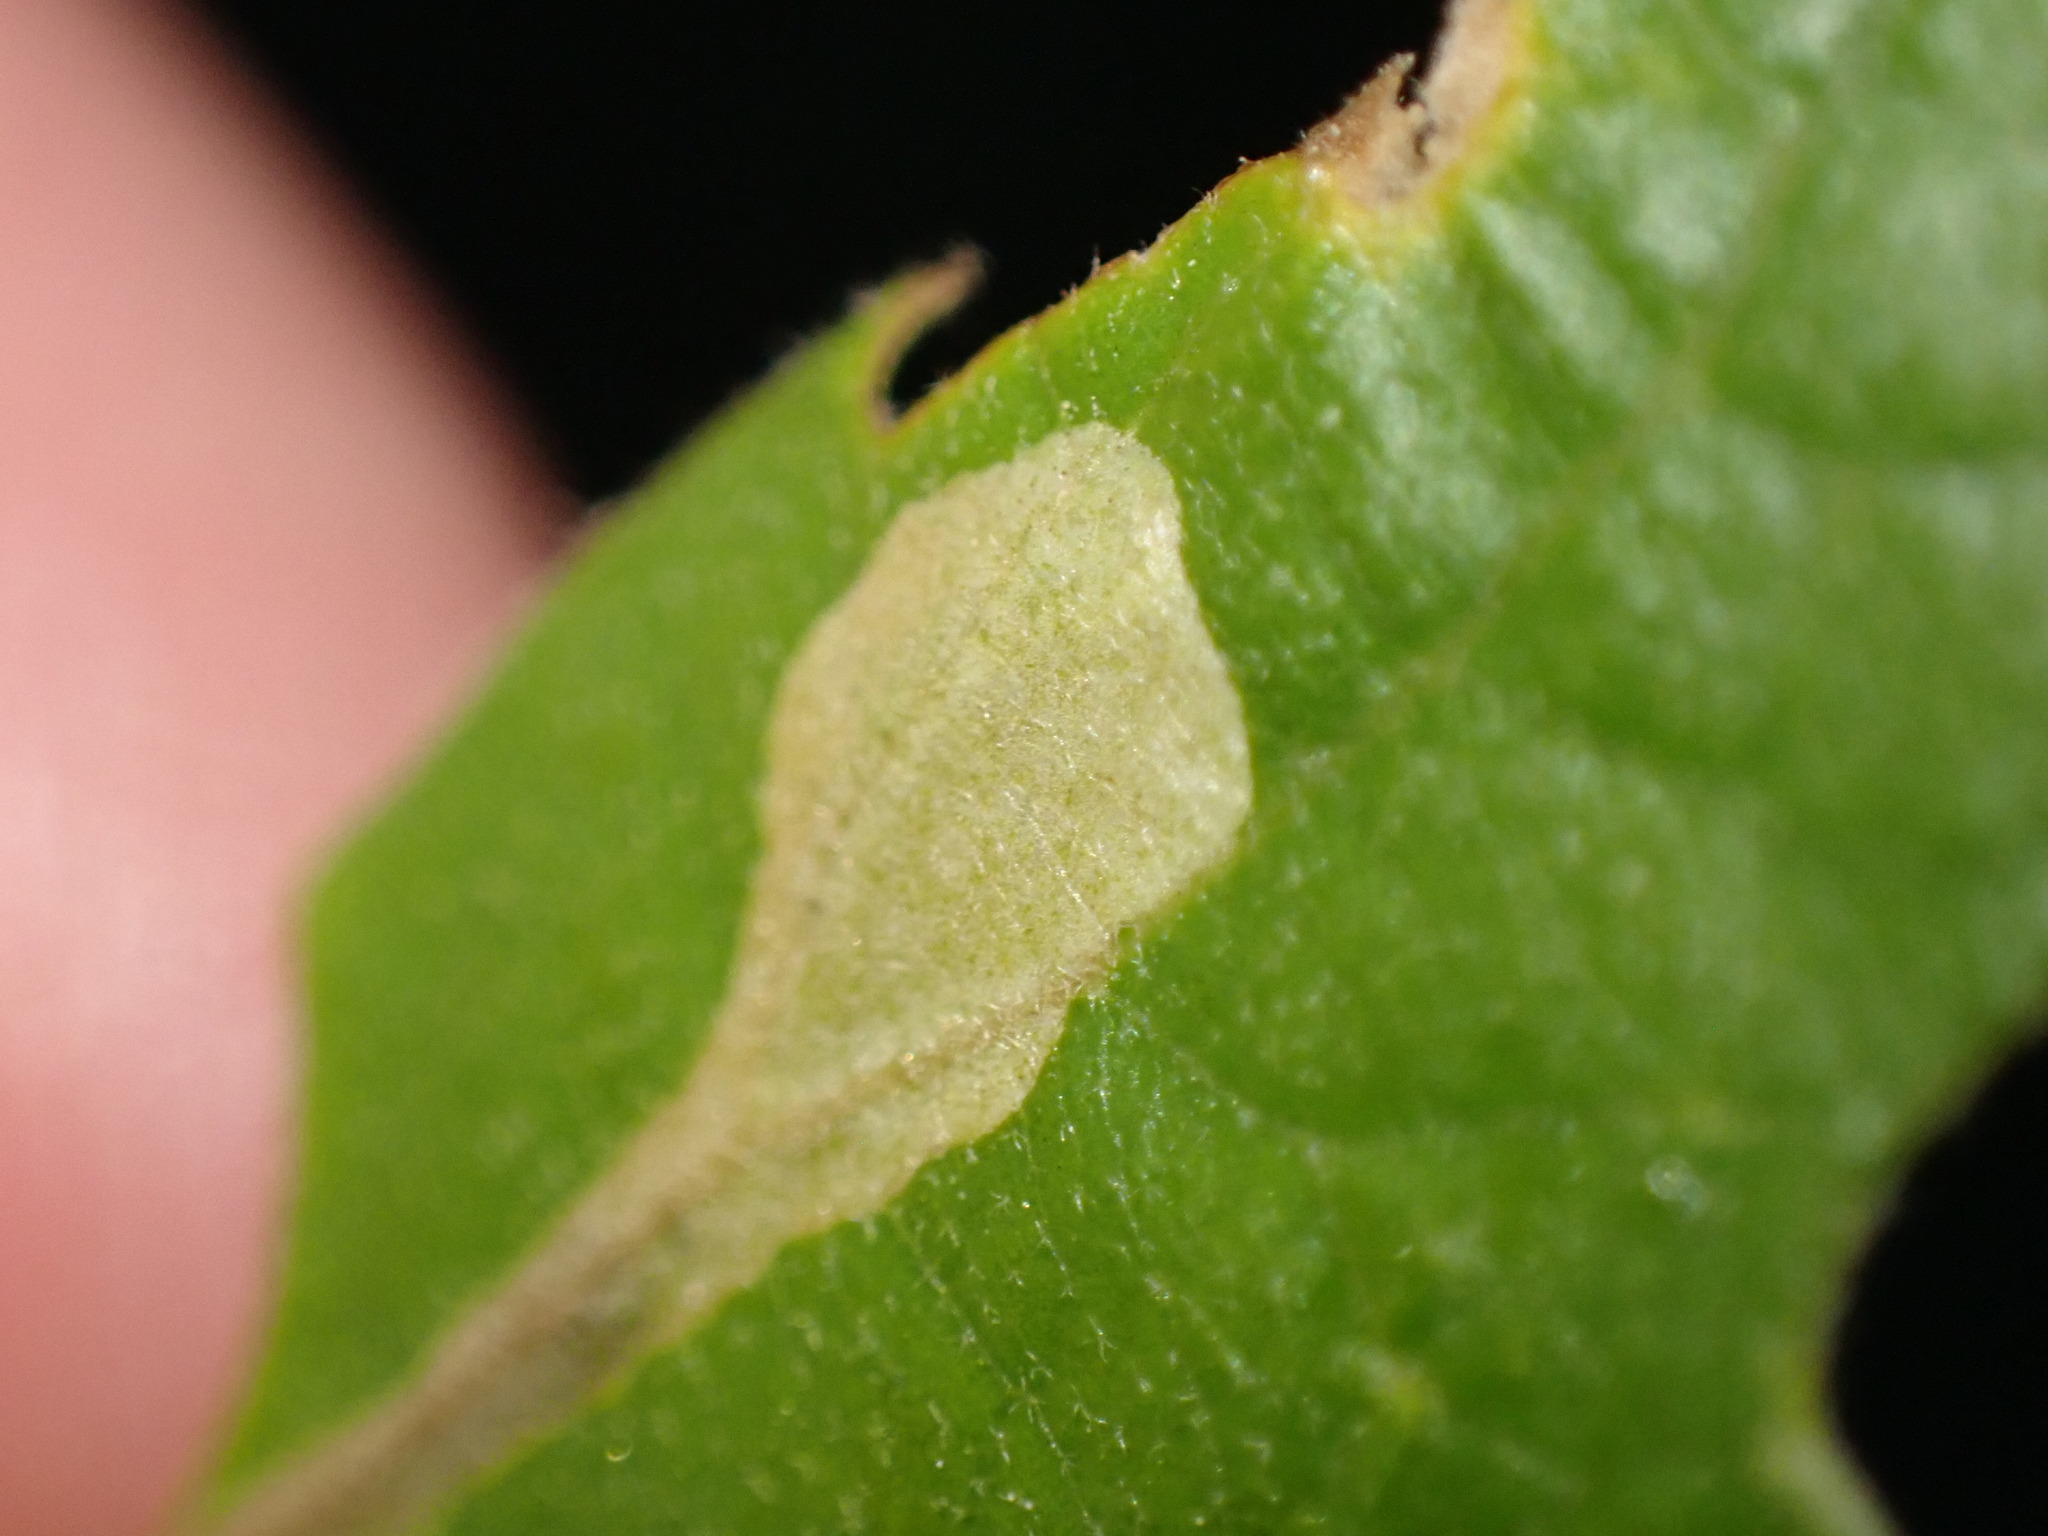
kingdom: Animalia
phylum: Arthropoda
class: Insecta
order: Lepidoptera
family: Gracillariidae
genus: Neurobathra
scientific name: Neurobathra strigifinitella
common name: Finite-channeled leafminer moth
